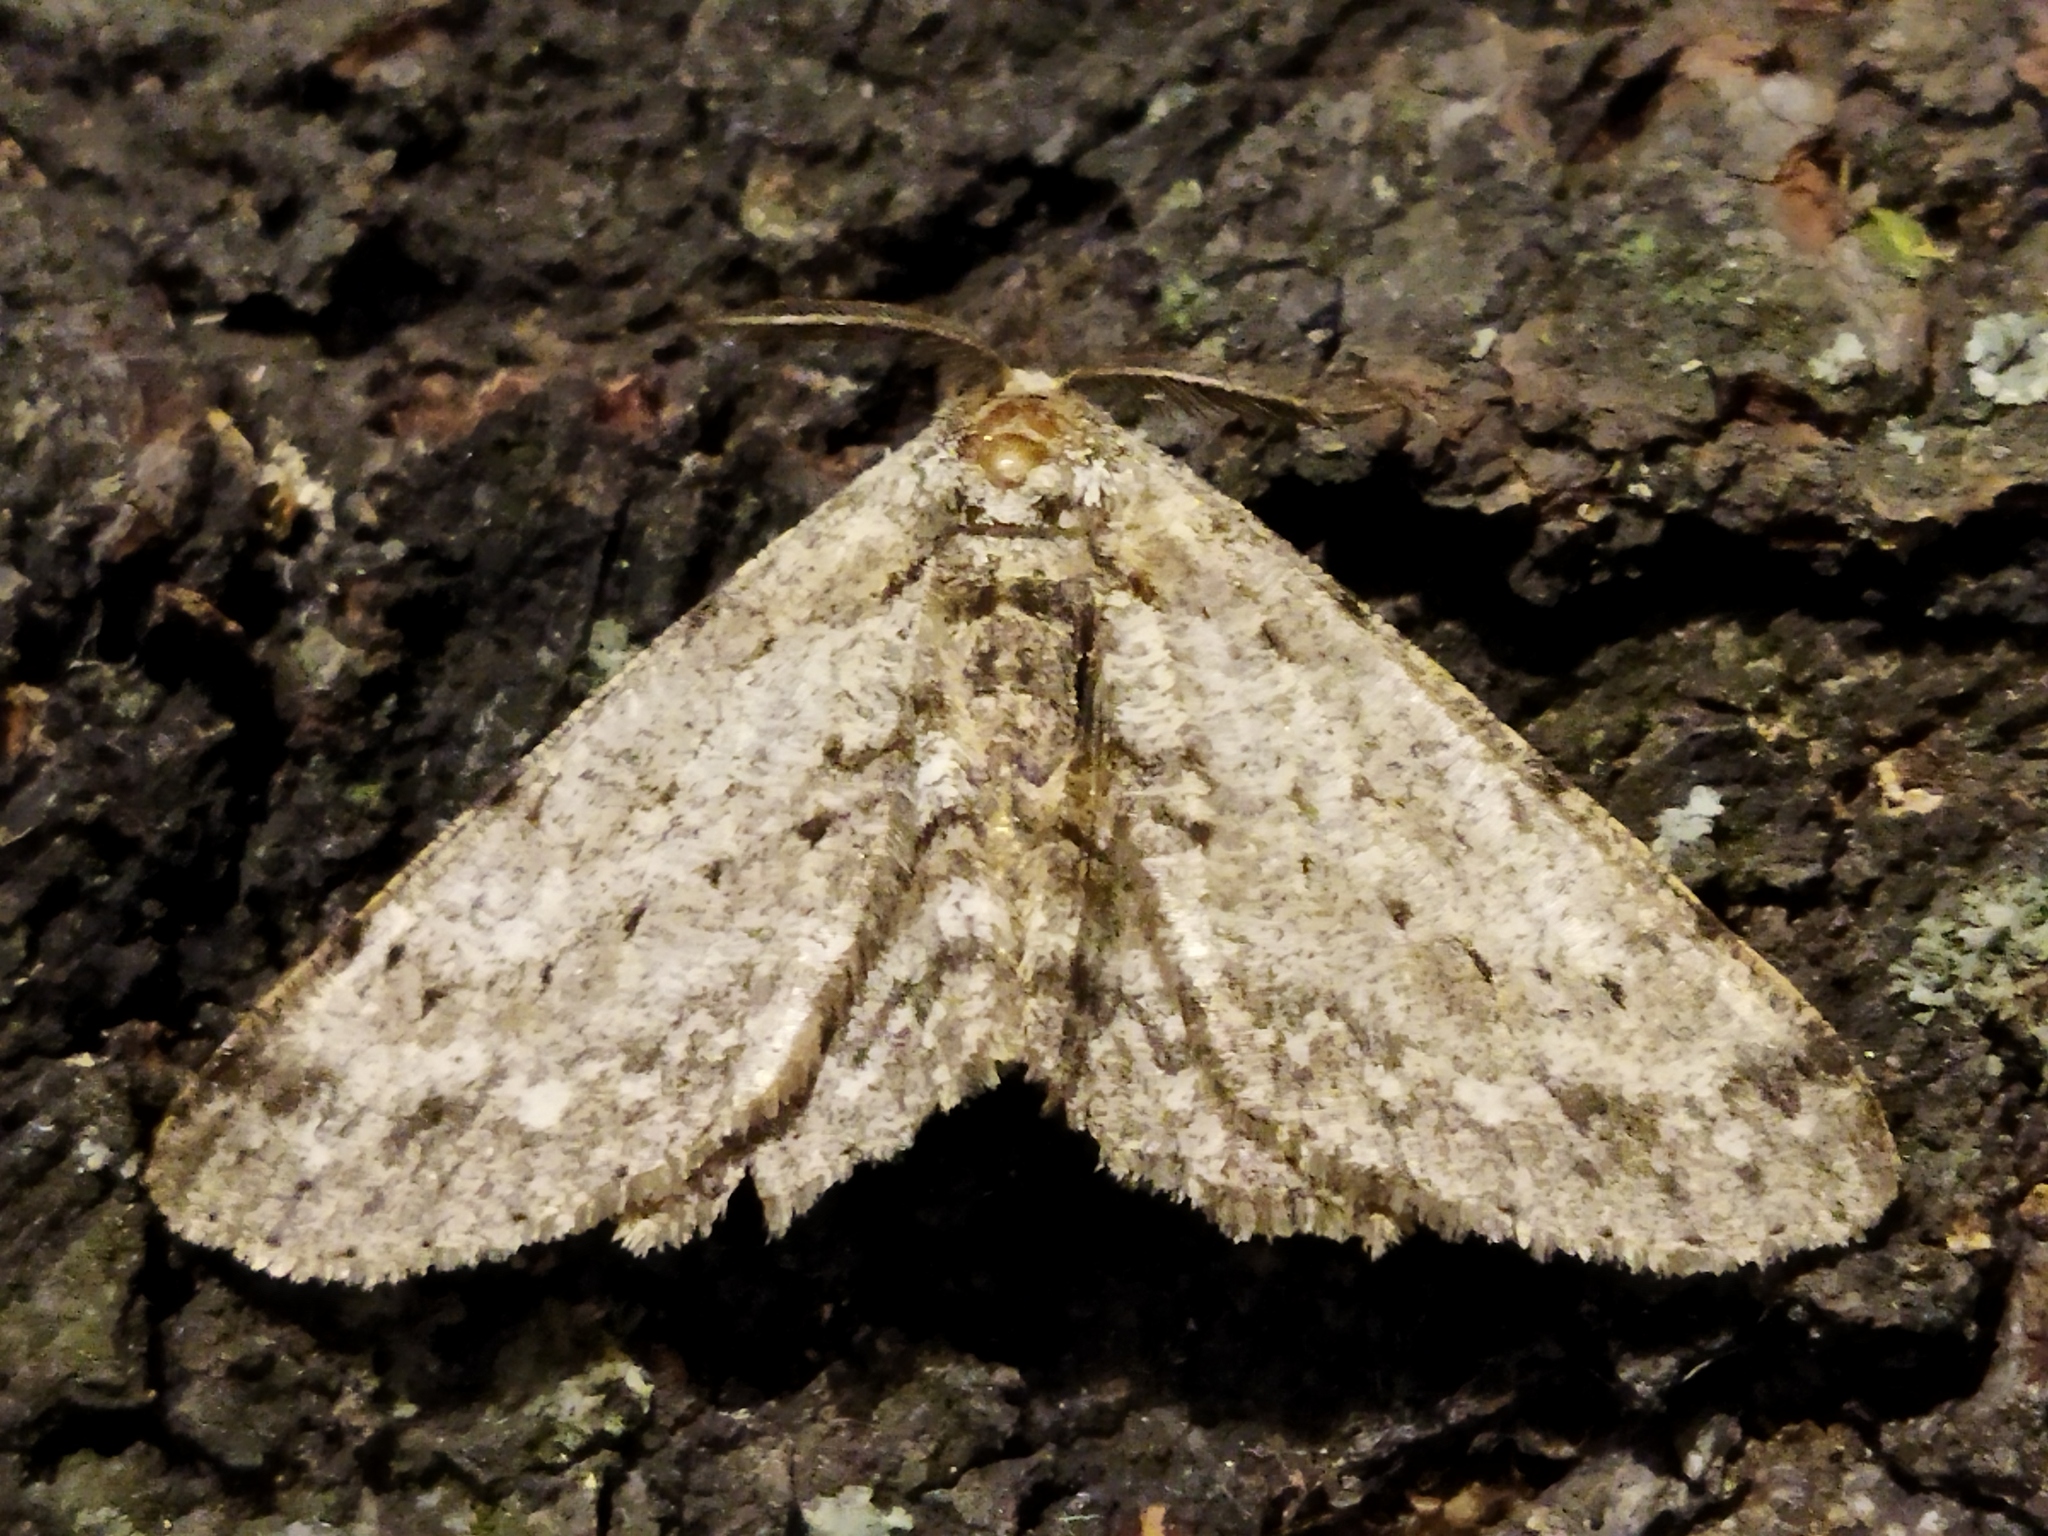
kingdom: Animalia
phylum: Arthropoda
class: Insecta
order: Lepidoptera
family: Geometridae
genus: Hypomecis
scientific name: Hypomecis punctinalis
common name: Pale oak beauty
